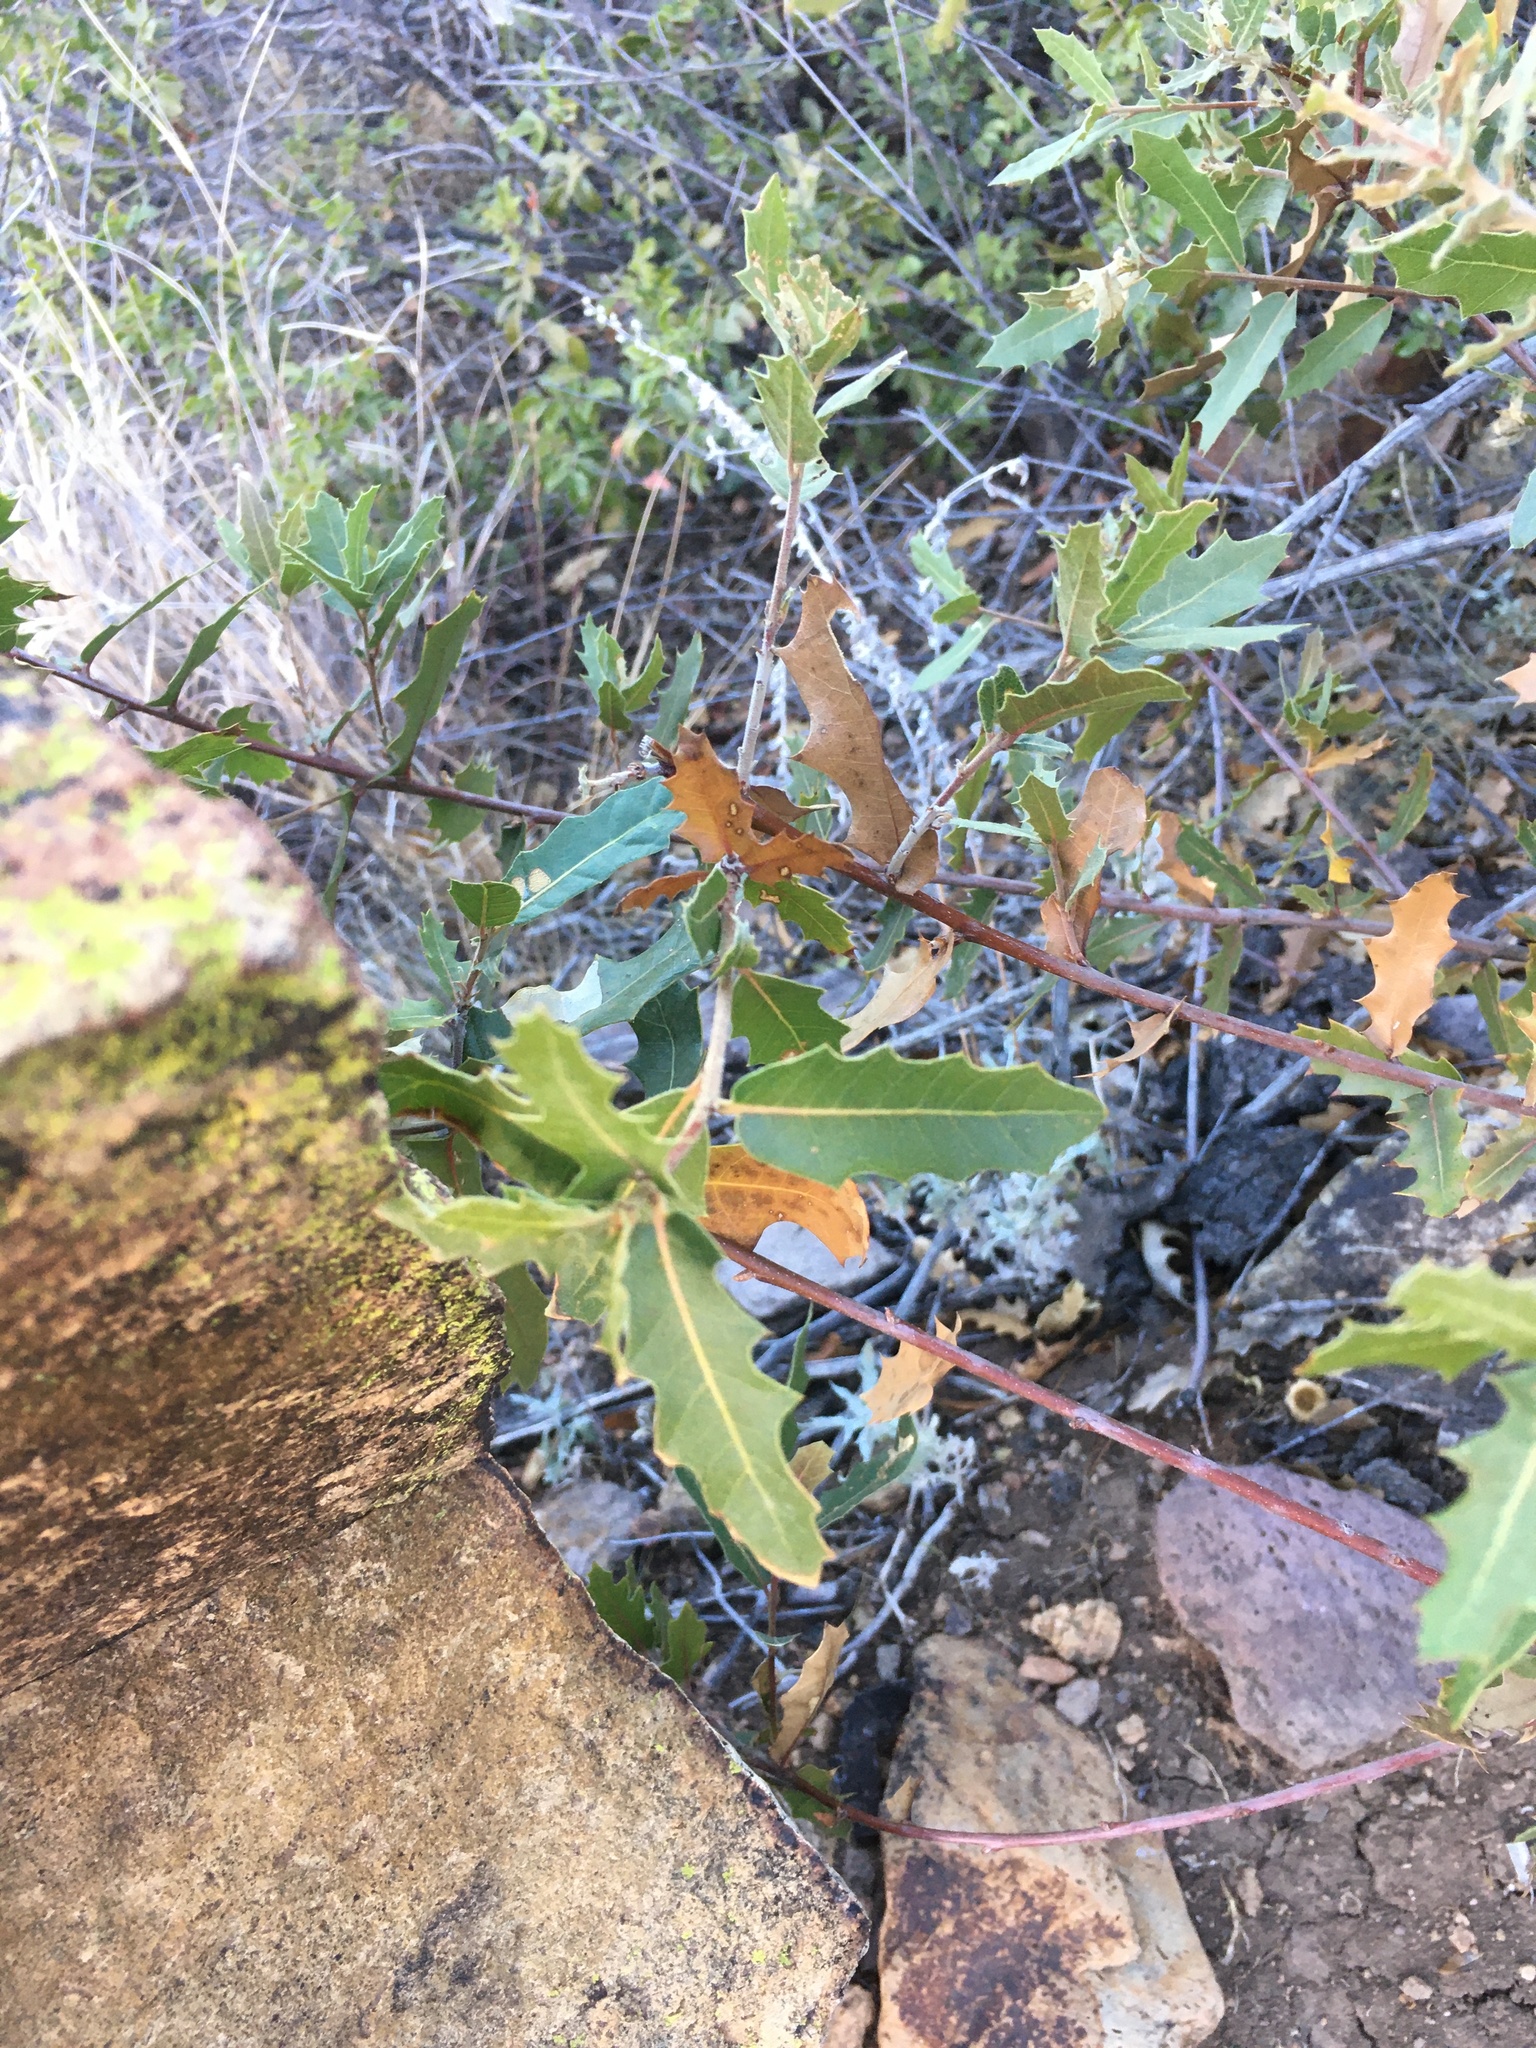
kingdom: Plantae
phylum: Tracheophyta
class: Magnoliopsida
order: Fagales
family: Fagaceae
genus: Quercus
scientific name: Quercus emoryi
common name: Emory oak
